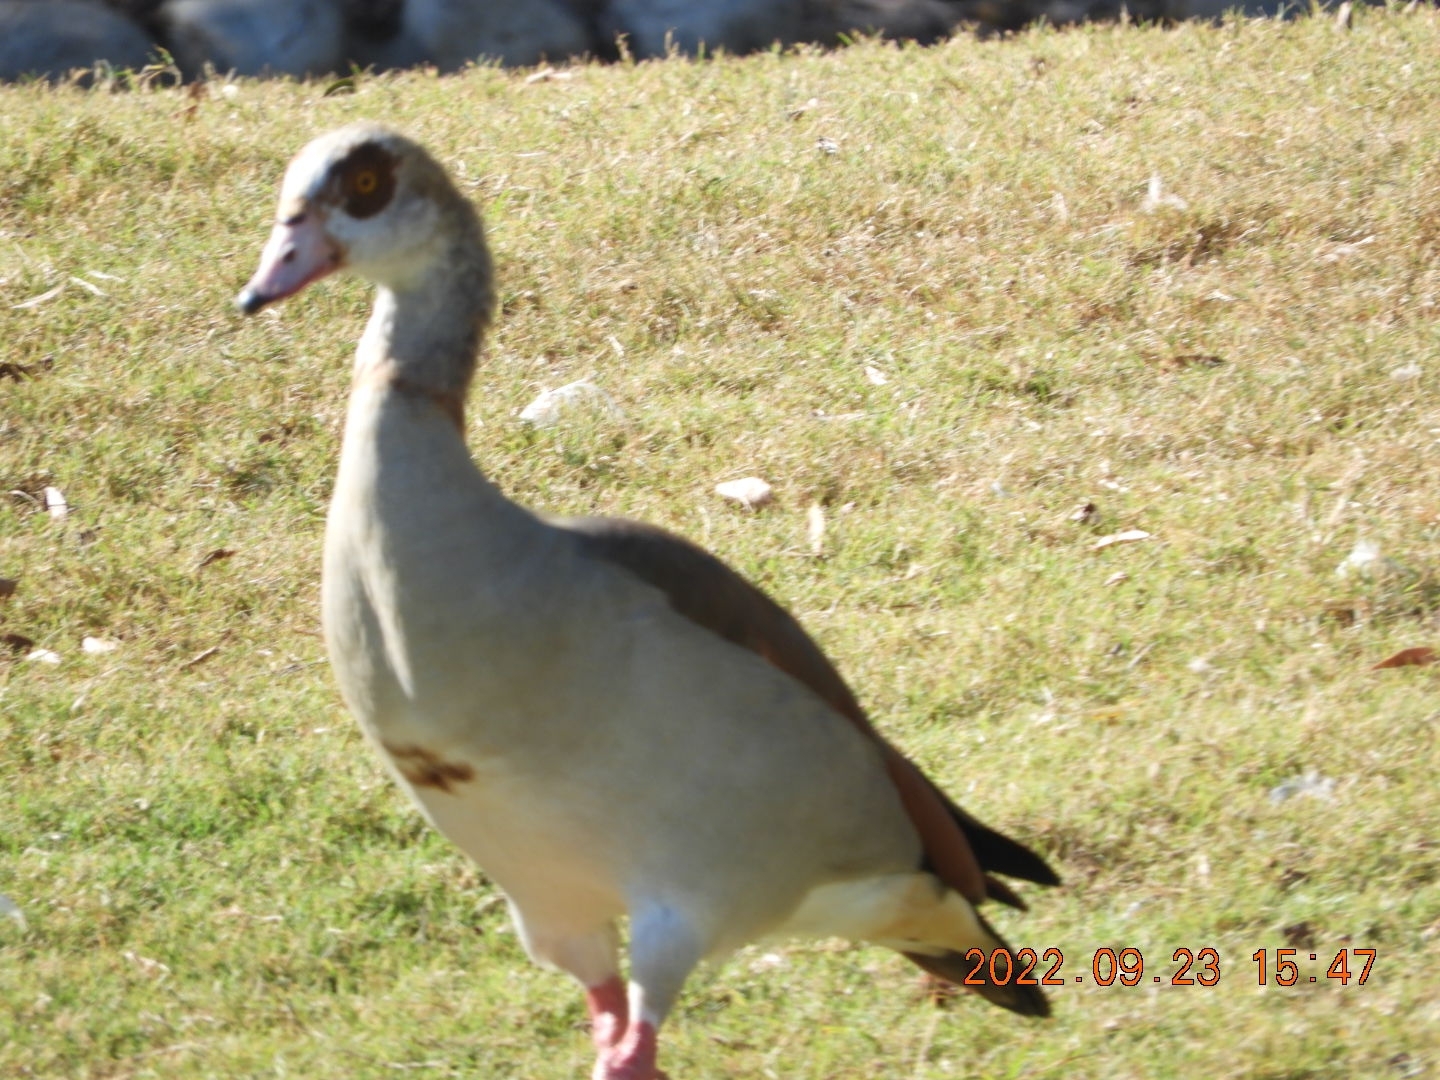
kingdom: Animalia
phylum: Chordata
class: Aves
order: Anseriformes
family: Anatidae
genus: Alopochen
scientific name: Alopochen aegyptiaca
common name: Egyptian goose
